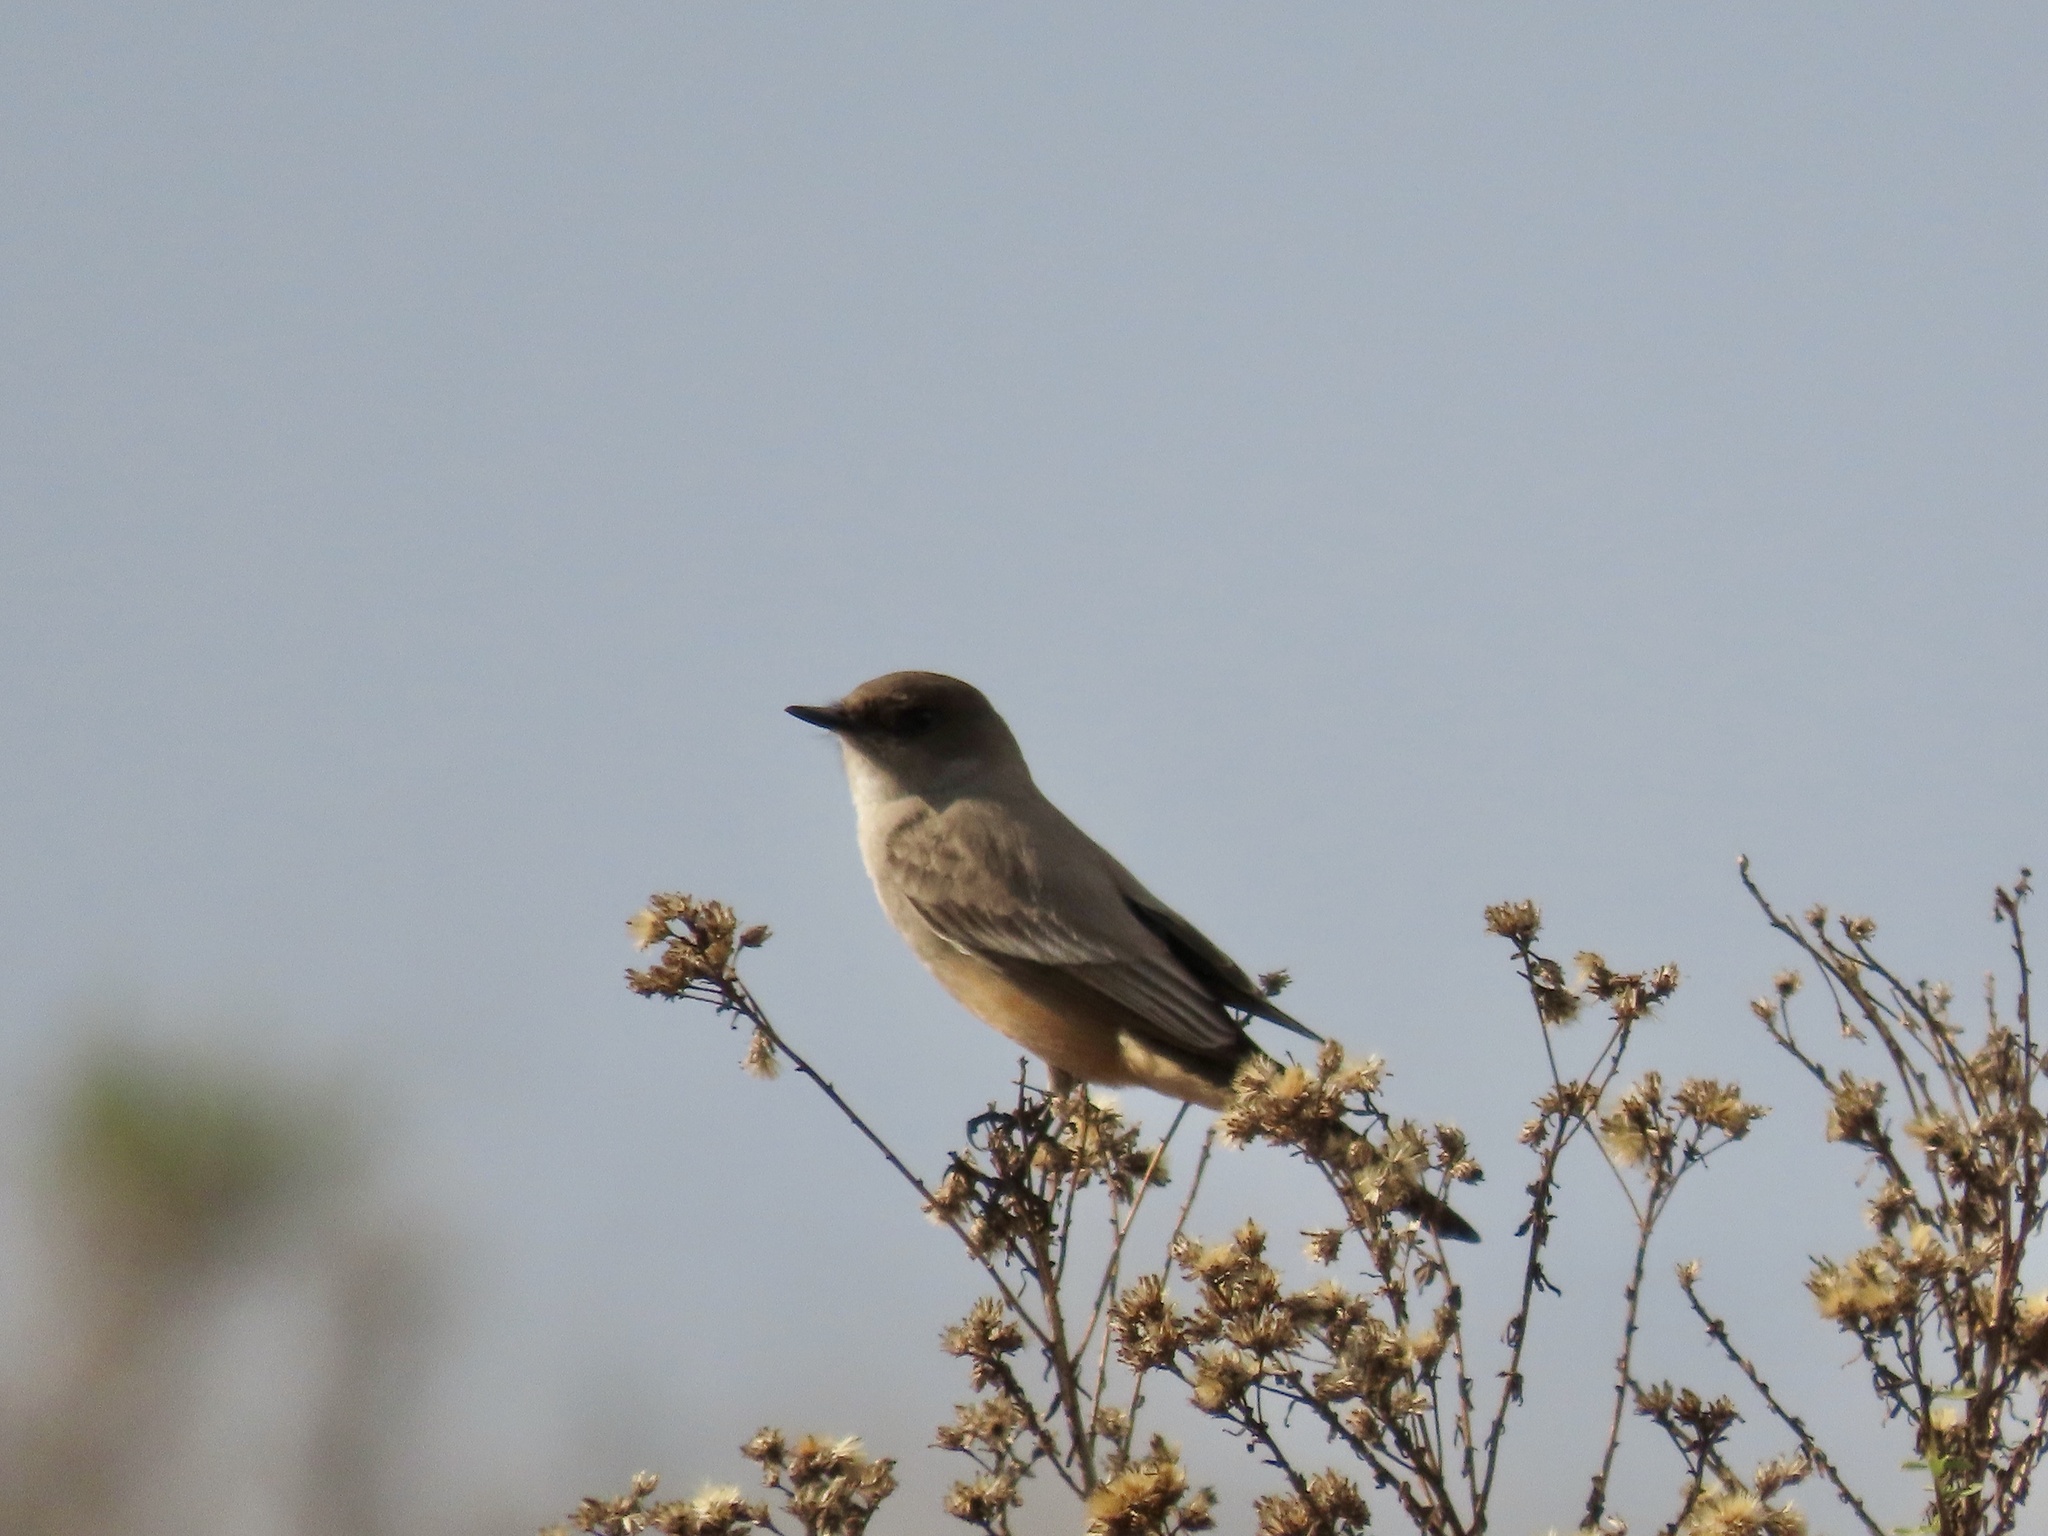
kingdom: Animalia
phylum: Chordata
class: Aves
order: Passeriformes
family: Tyrannidae
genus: Sayornis
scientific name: Sayornis saya
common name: Say's phoebe
